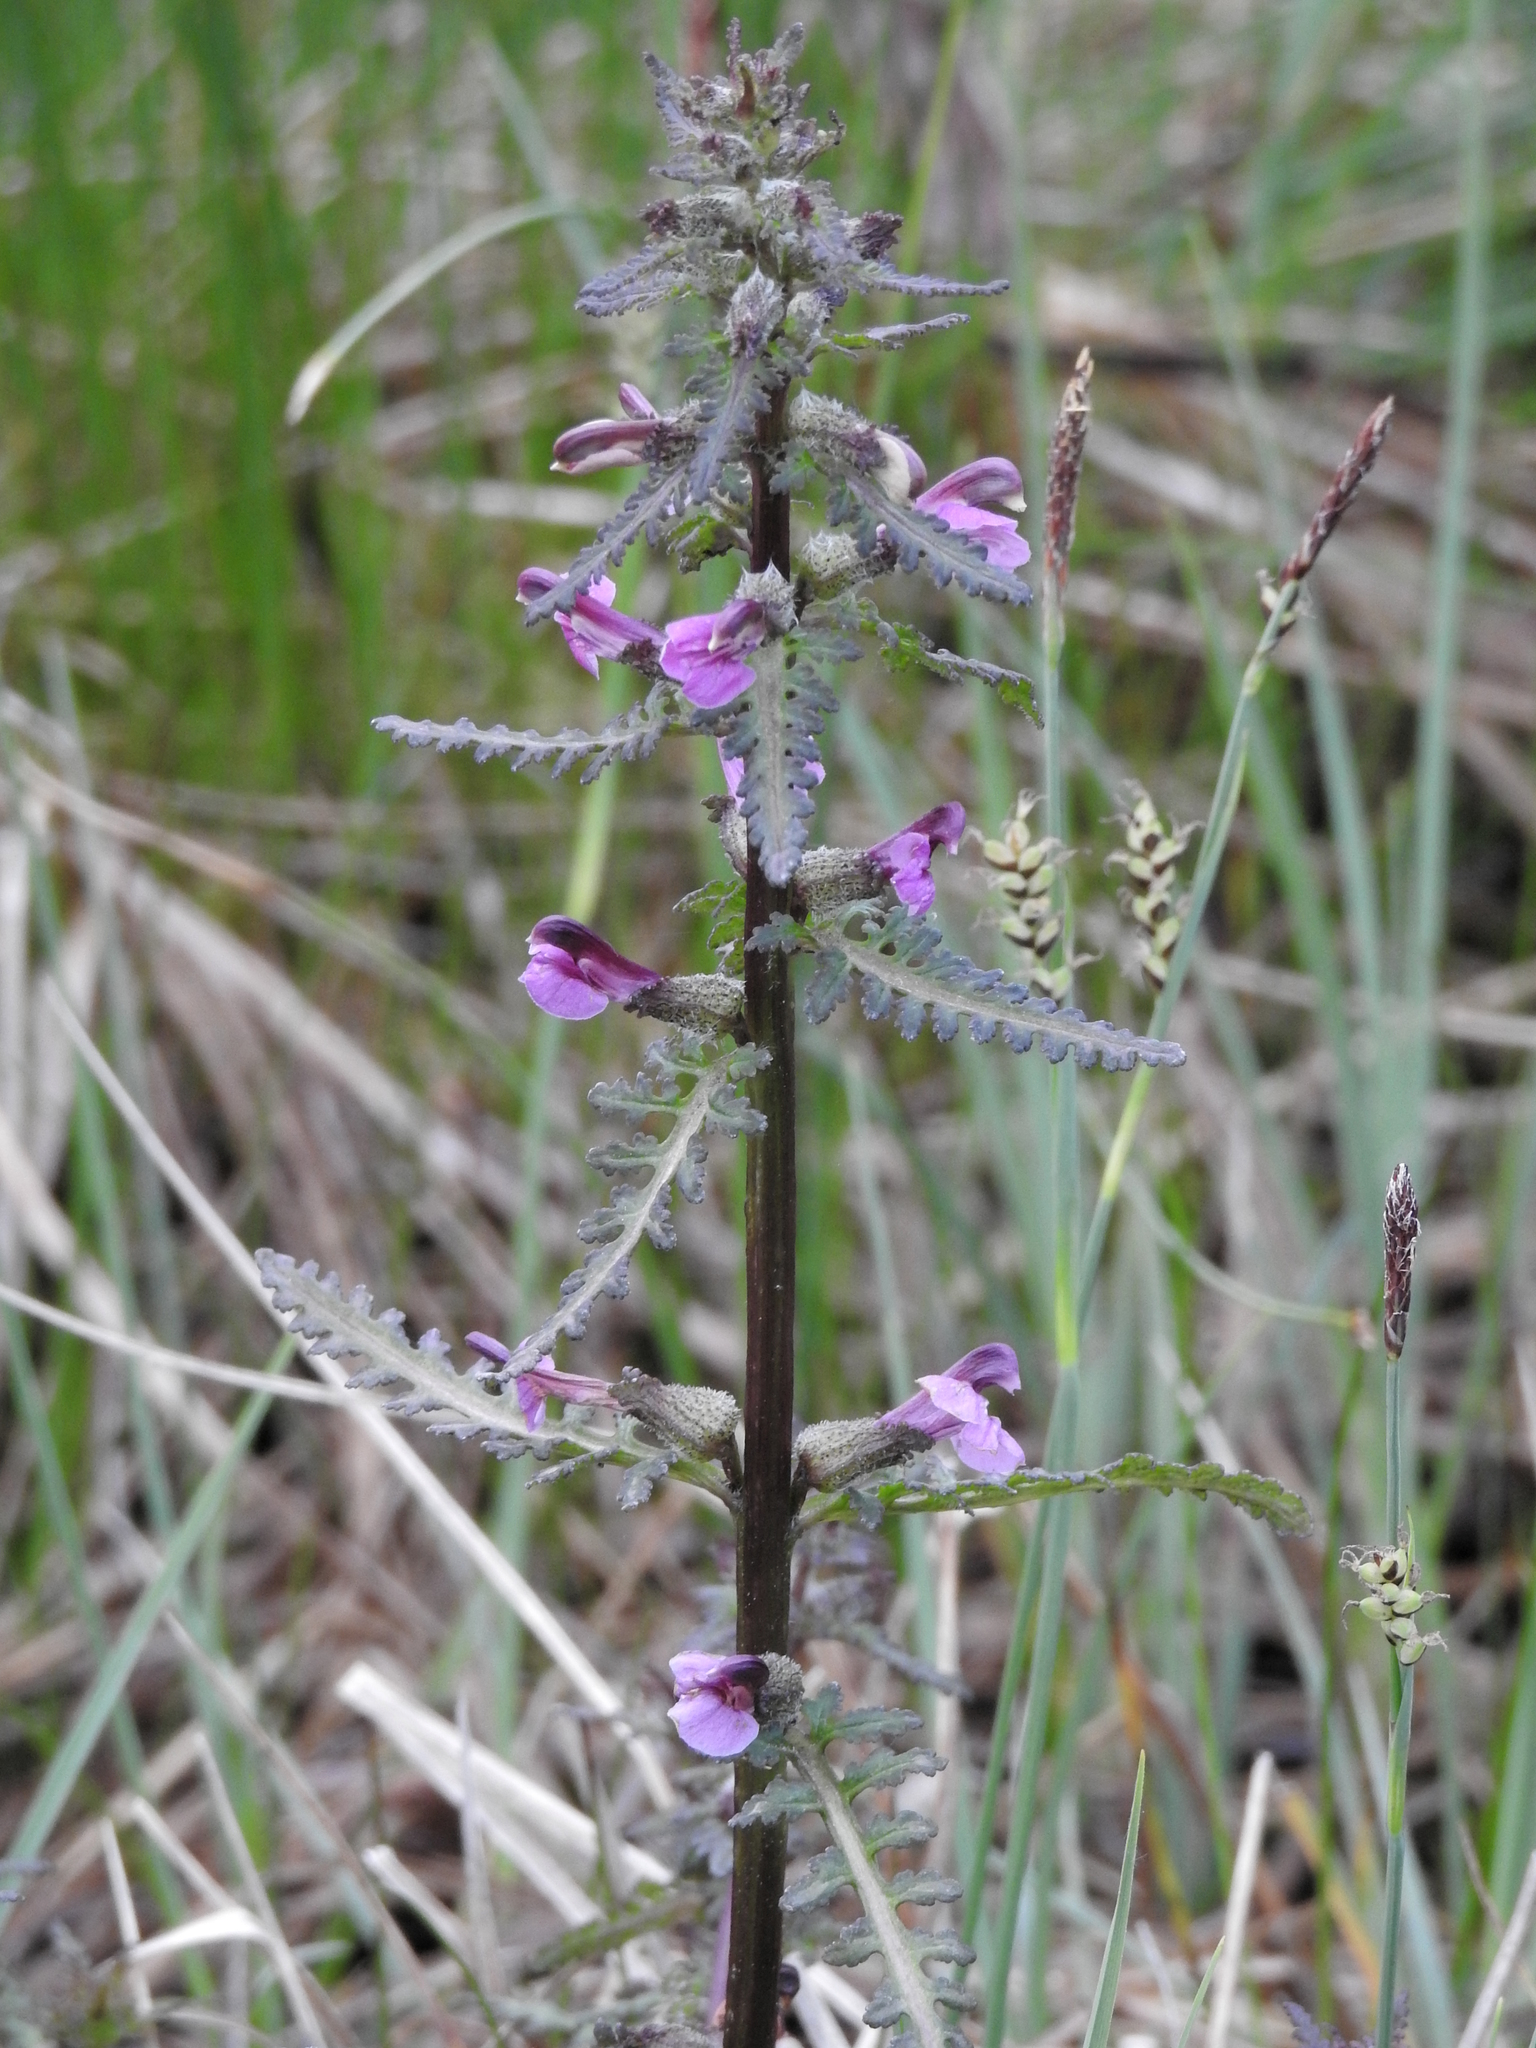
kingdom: Plantae
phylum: Tracheophyta
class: Magnoliopsida
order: Lamiales
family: Orobanchaceae
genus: Pedicularis
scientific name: Pedicularis palustris
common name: Marsh lousewort
